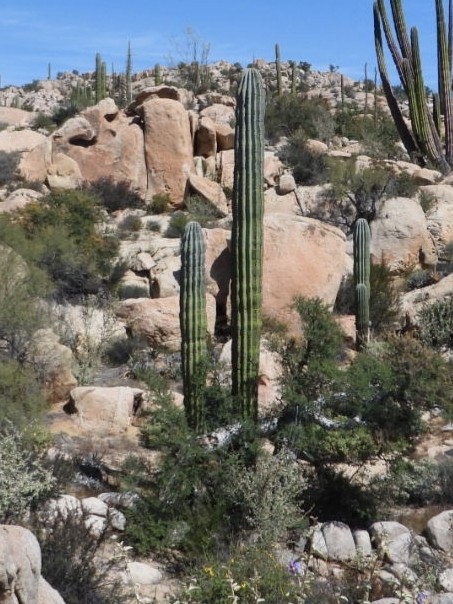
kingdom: Plantae
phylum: Tracheophyta
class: Magnoliopsida
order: Caryophyllales
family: Cactaceae
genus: Pachycereus
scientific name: Pachycereus pringlei
